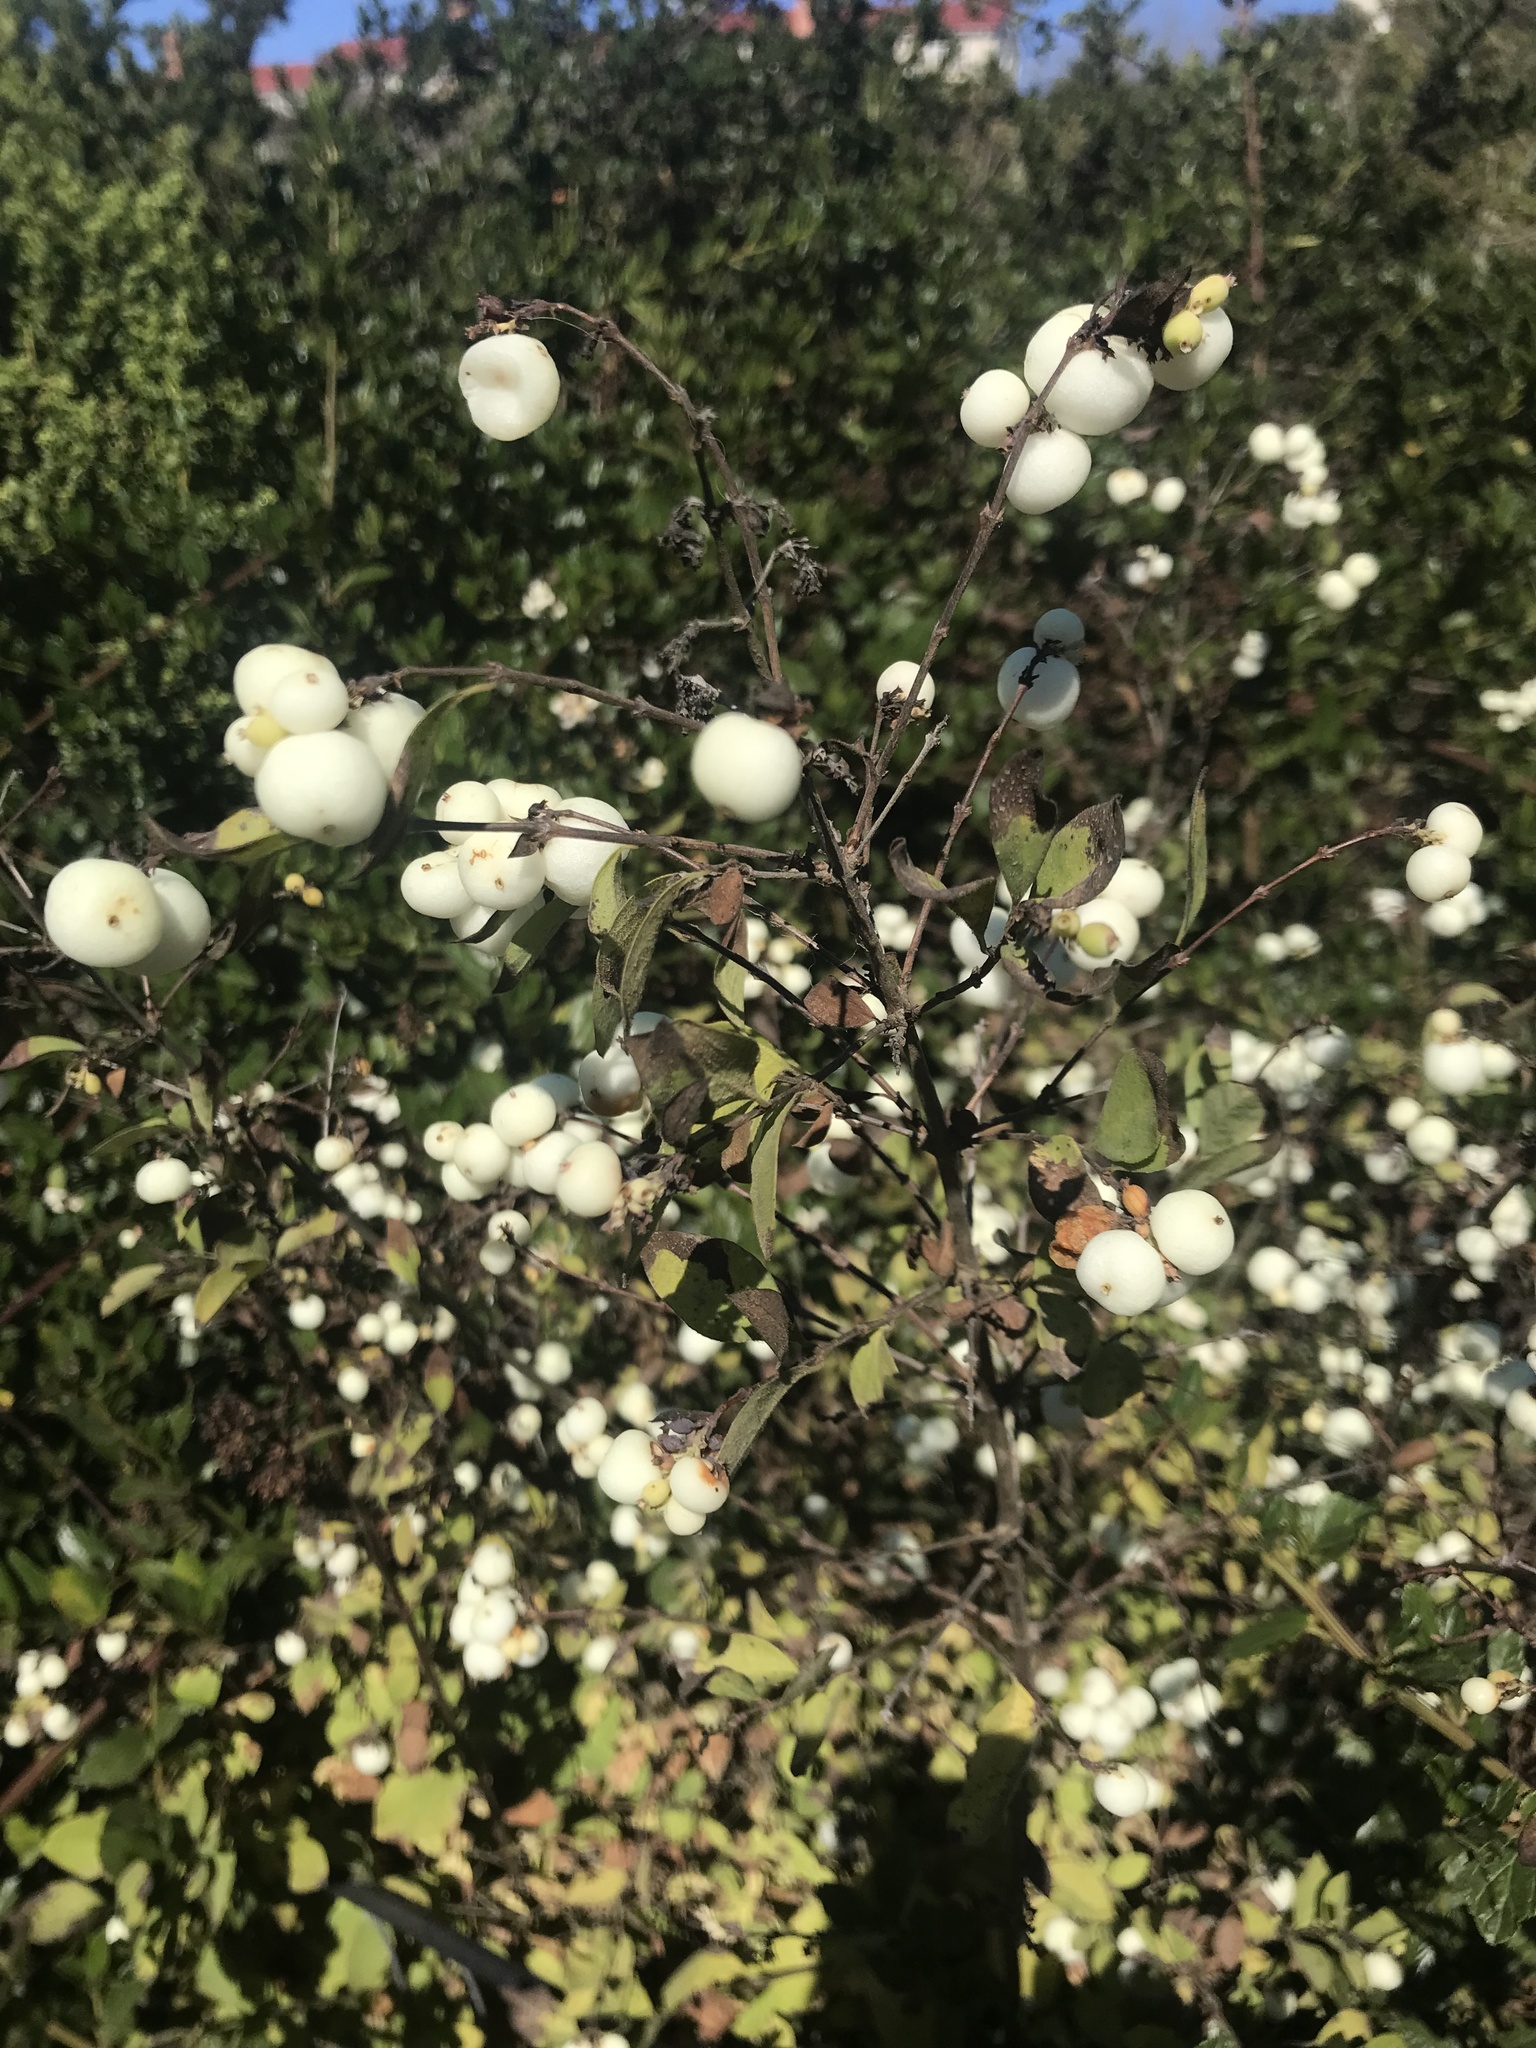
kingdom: Plantae
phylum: Tracheophyta
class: Magnoliopsida
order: Dipsacales
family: Caprifoliaceae
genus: Symphoricarpos
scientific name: Symphoricarpos albus
